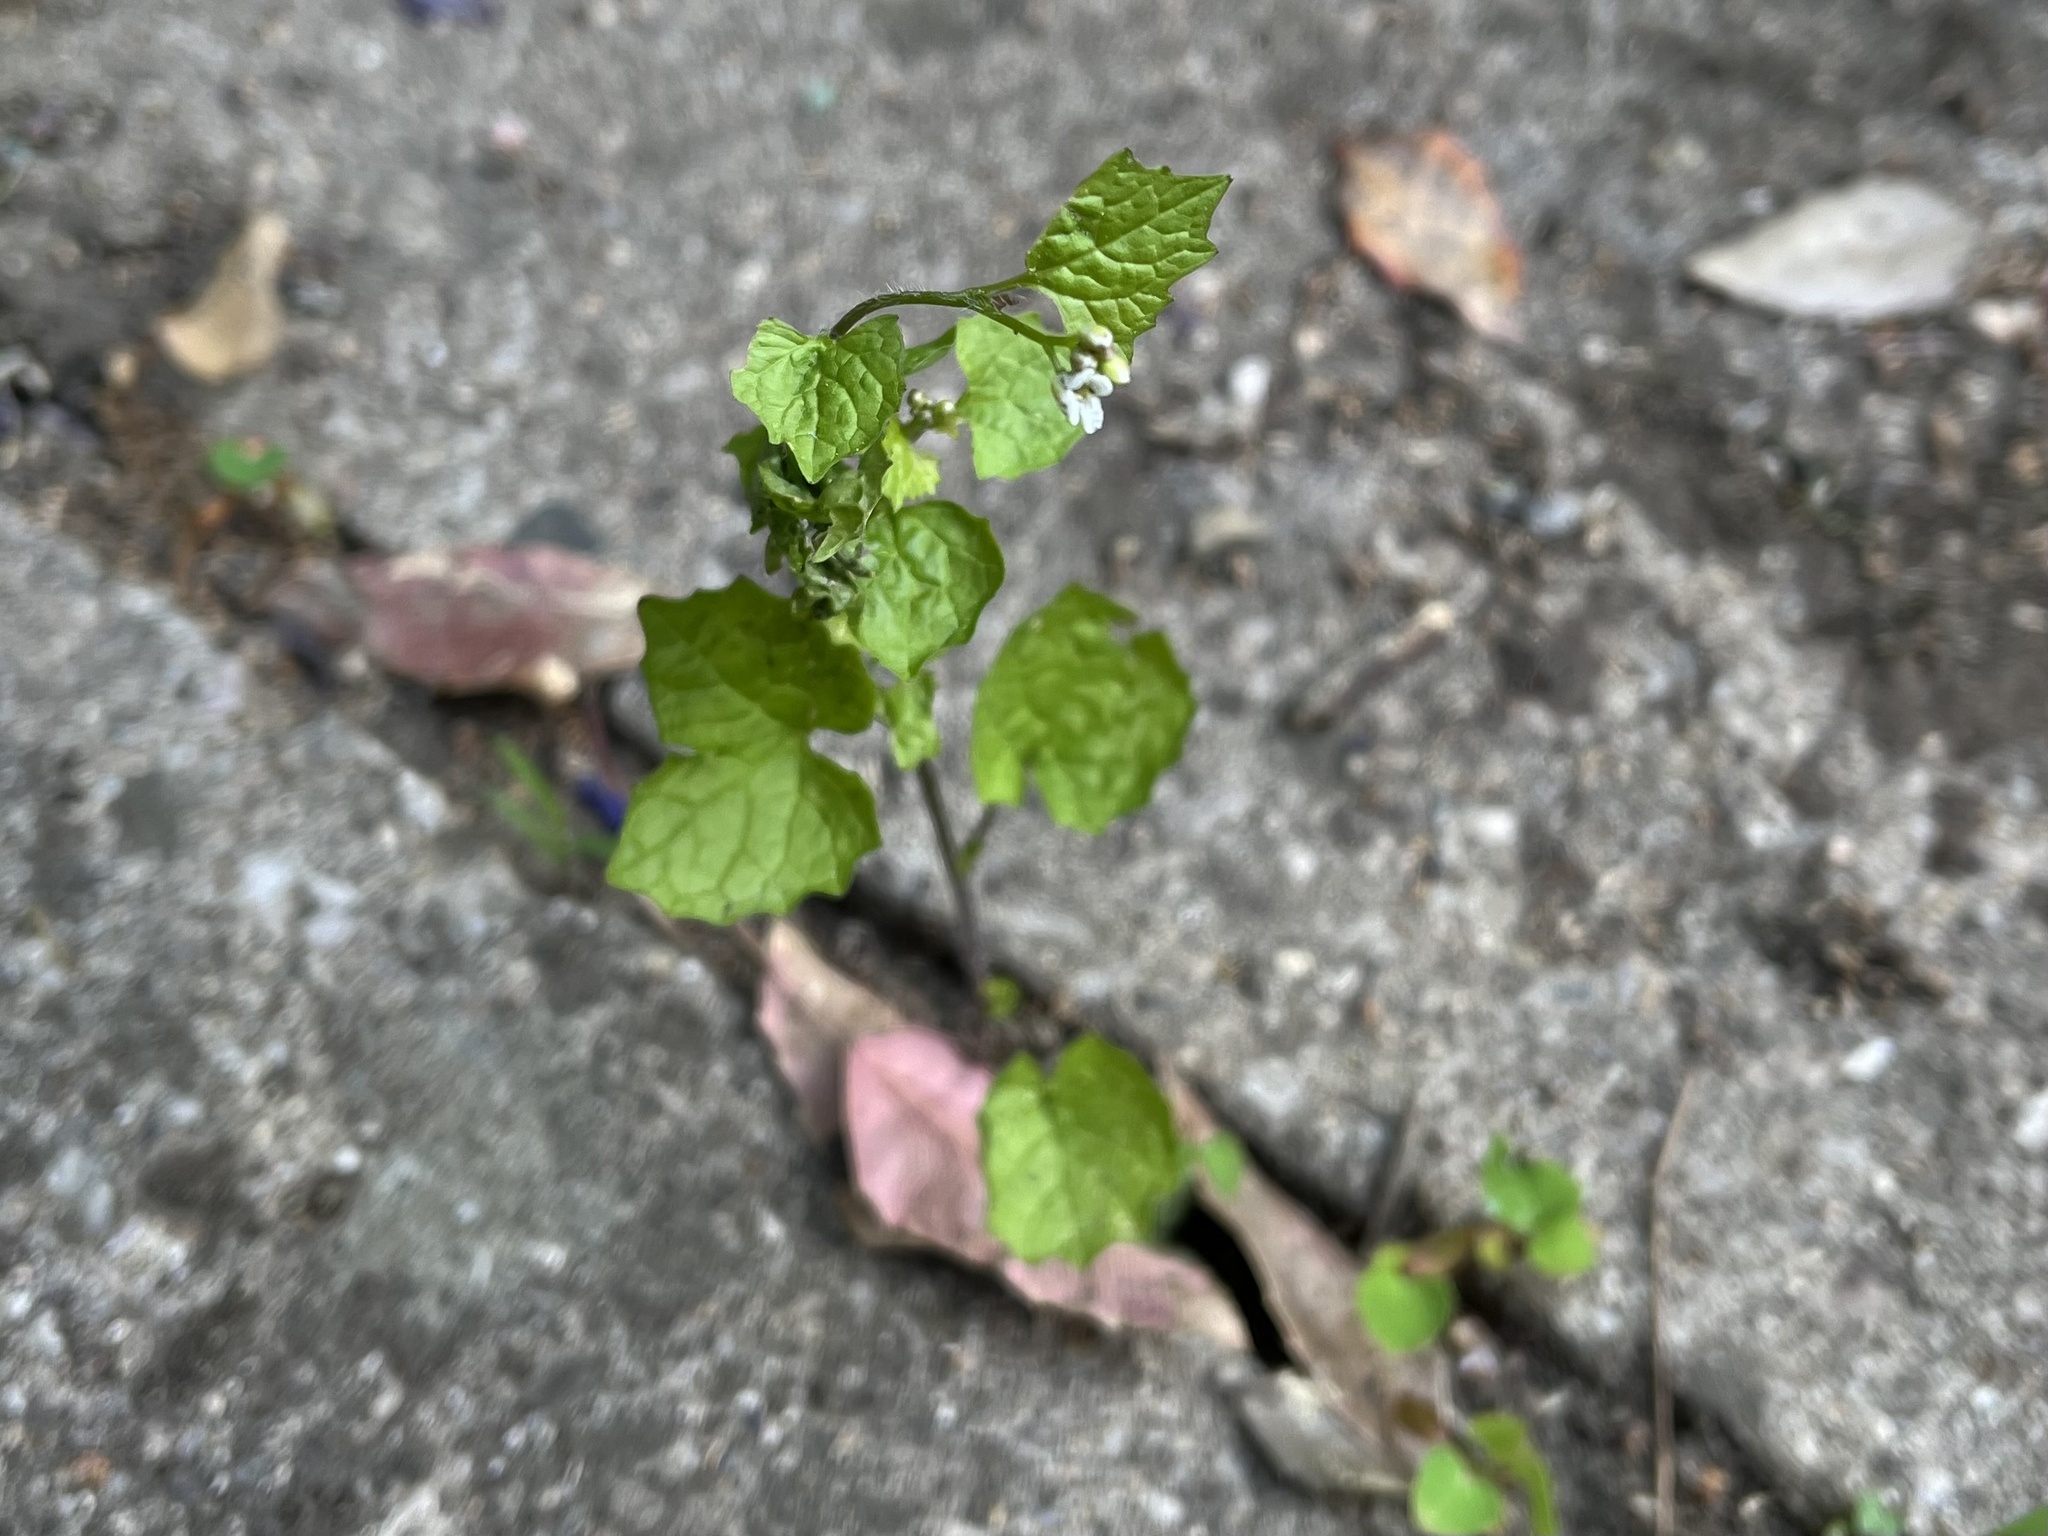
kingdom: Plantae
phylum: Tracheophyta
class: Magnoliopsida
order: Brassicales
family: Brassicaceae
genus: Alliaria
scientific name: Alliaria petiolata
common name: Garlic mustard
